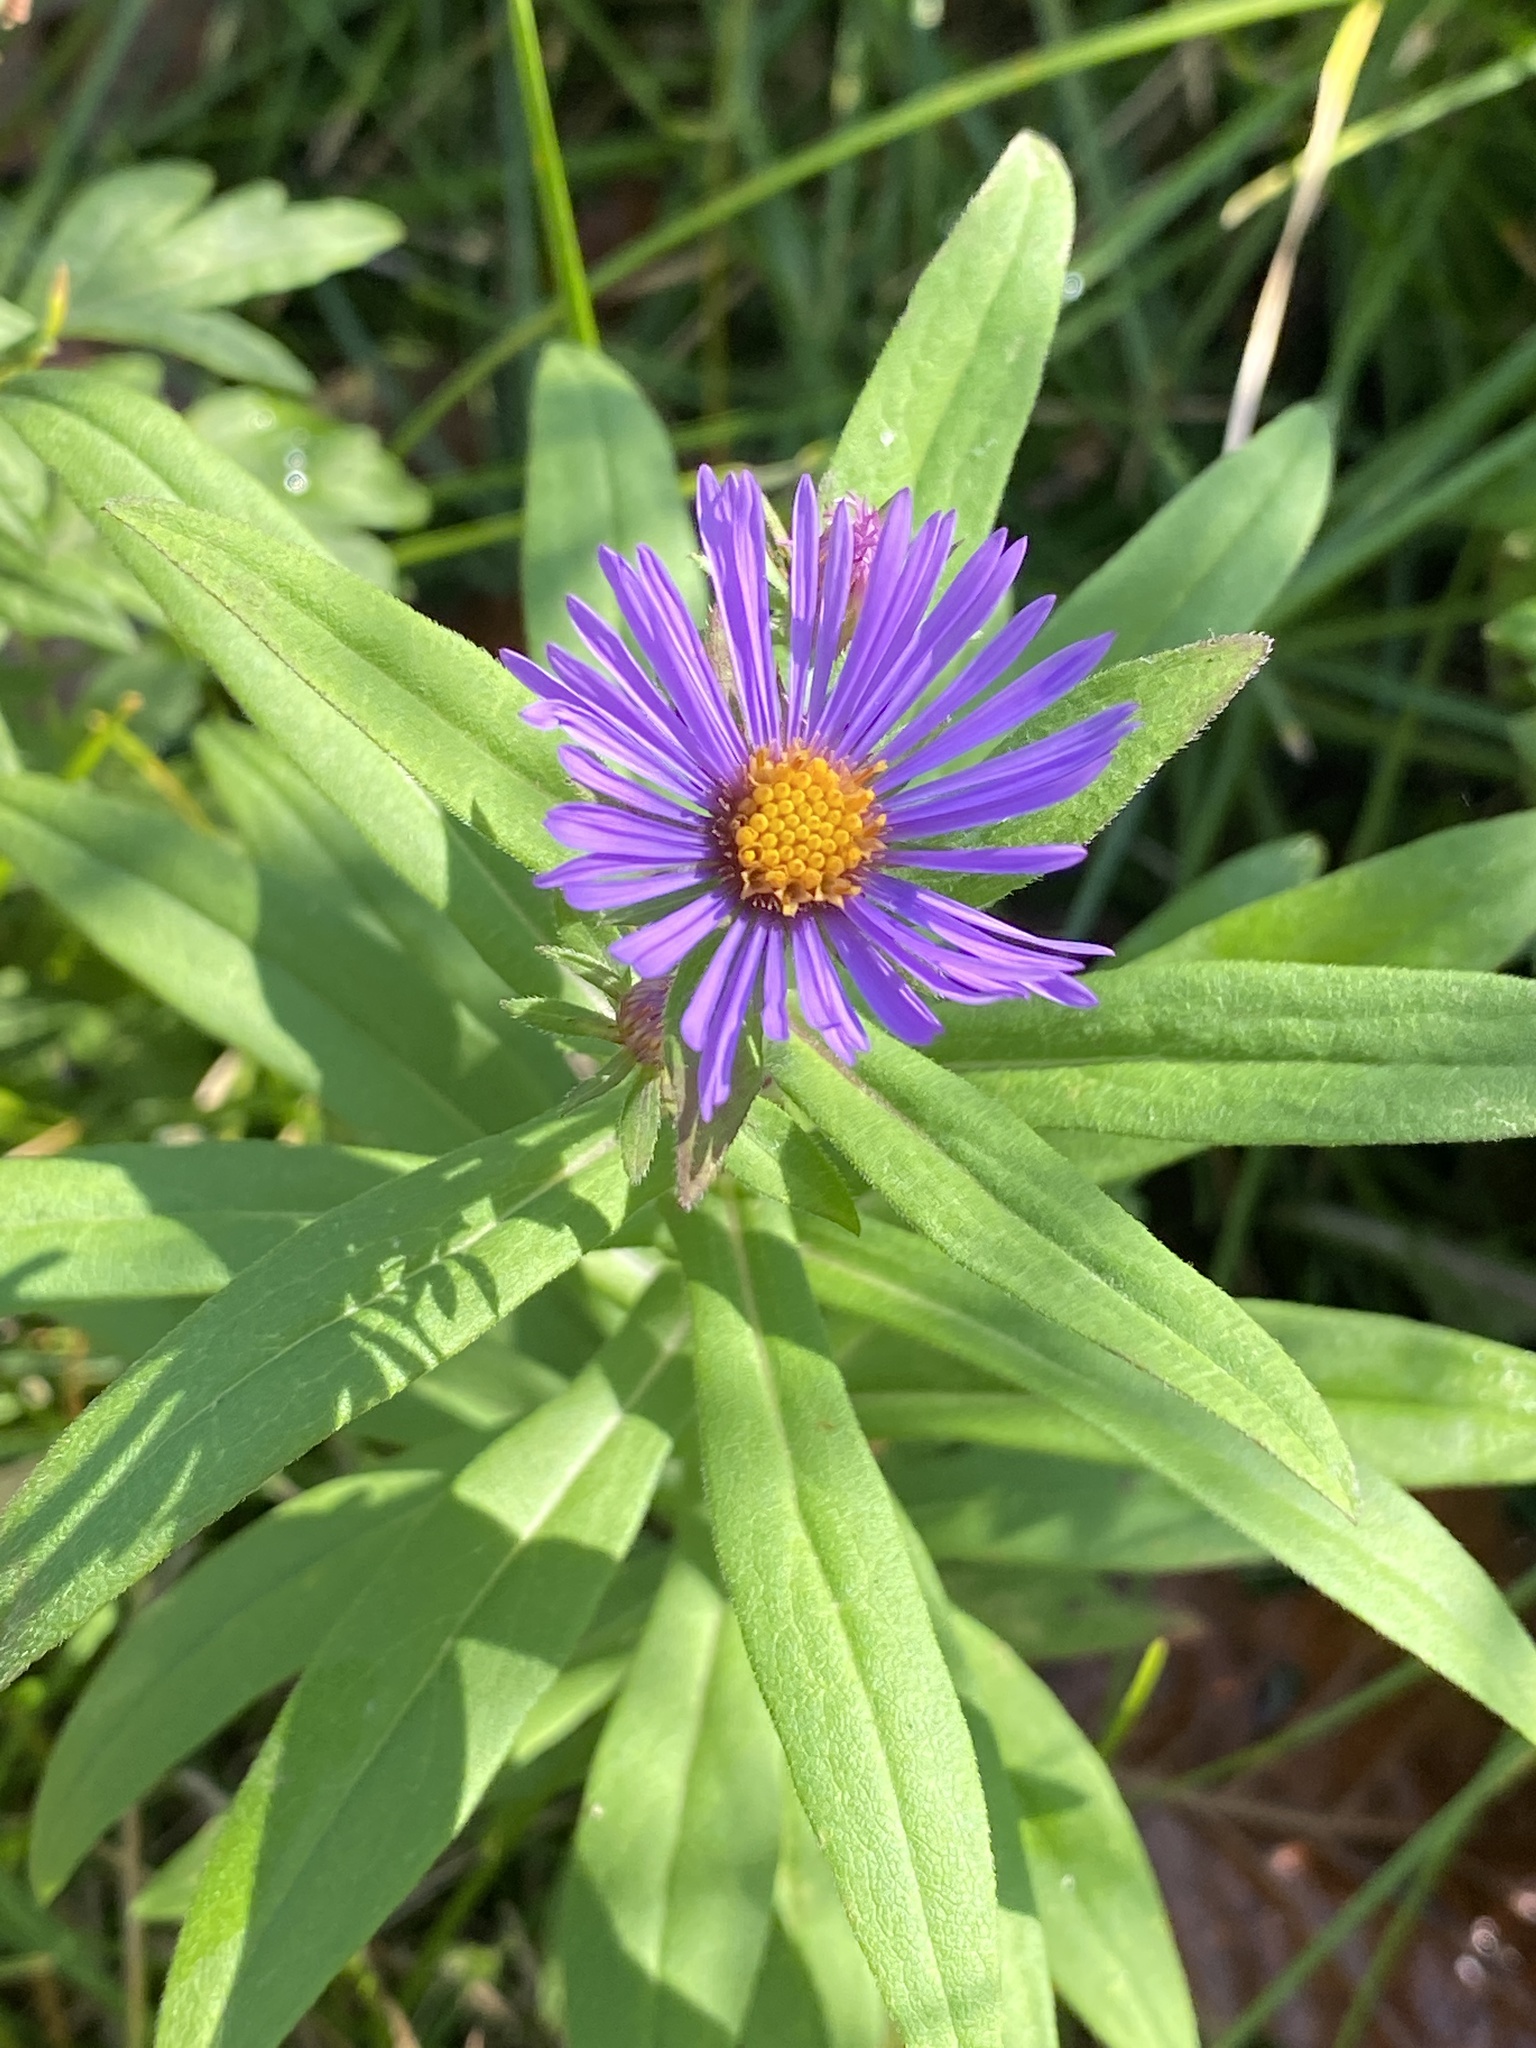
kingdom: Plantae
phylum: Tracheophyta
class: Magnoliopsida
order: Asterales
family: Asteraceae
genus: Symphyotrichum
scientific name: Symphyotrichum novae-angliae
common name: Michaelmas daisy
